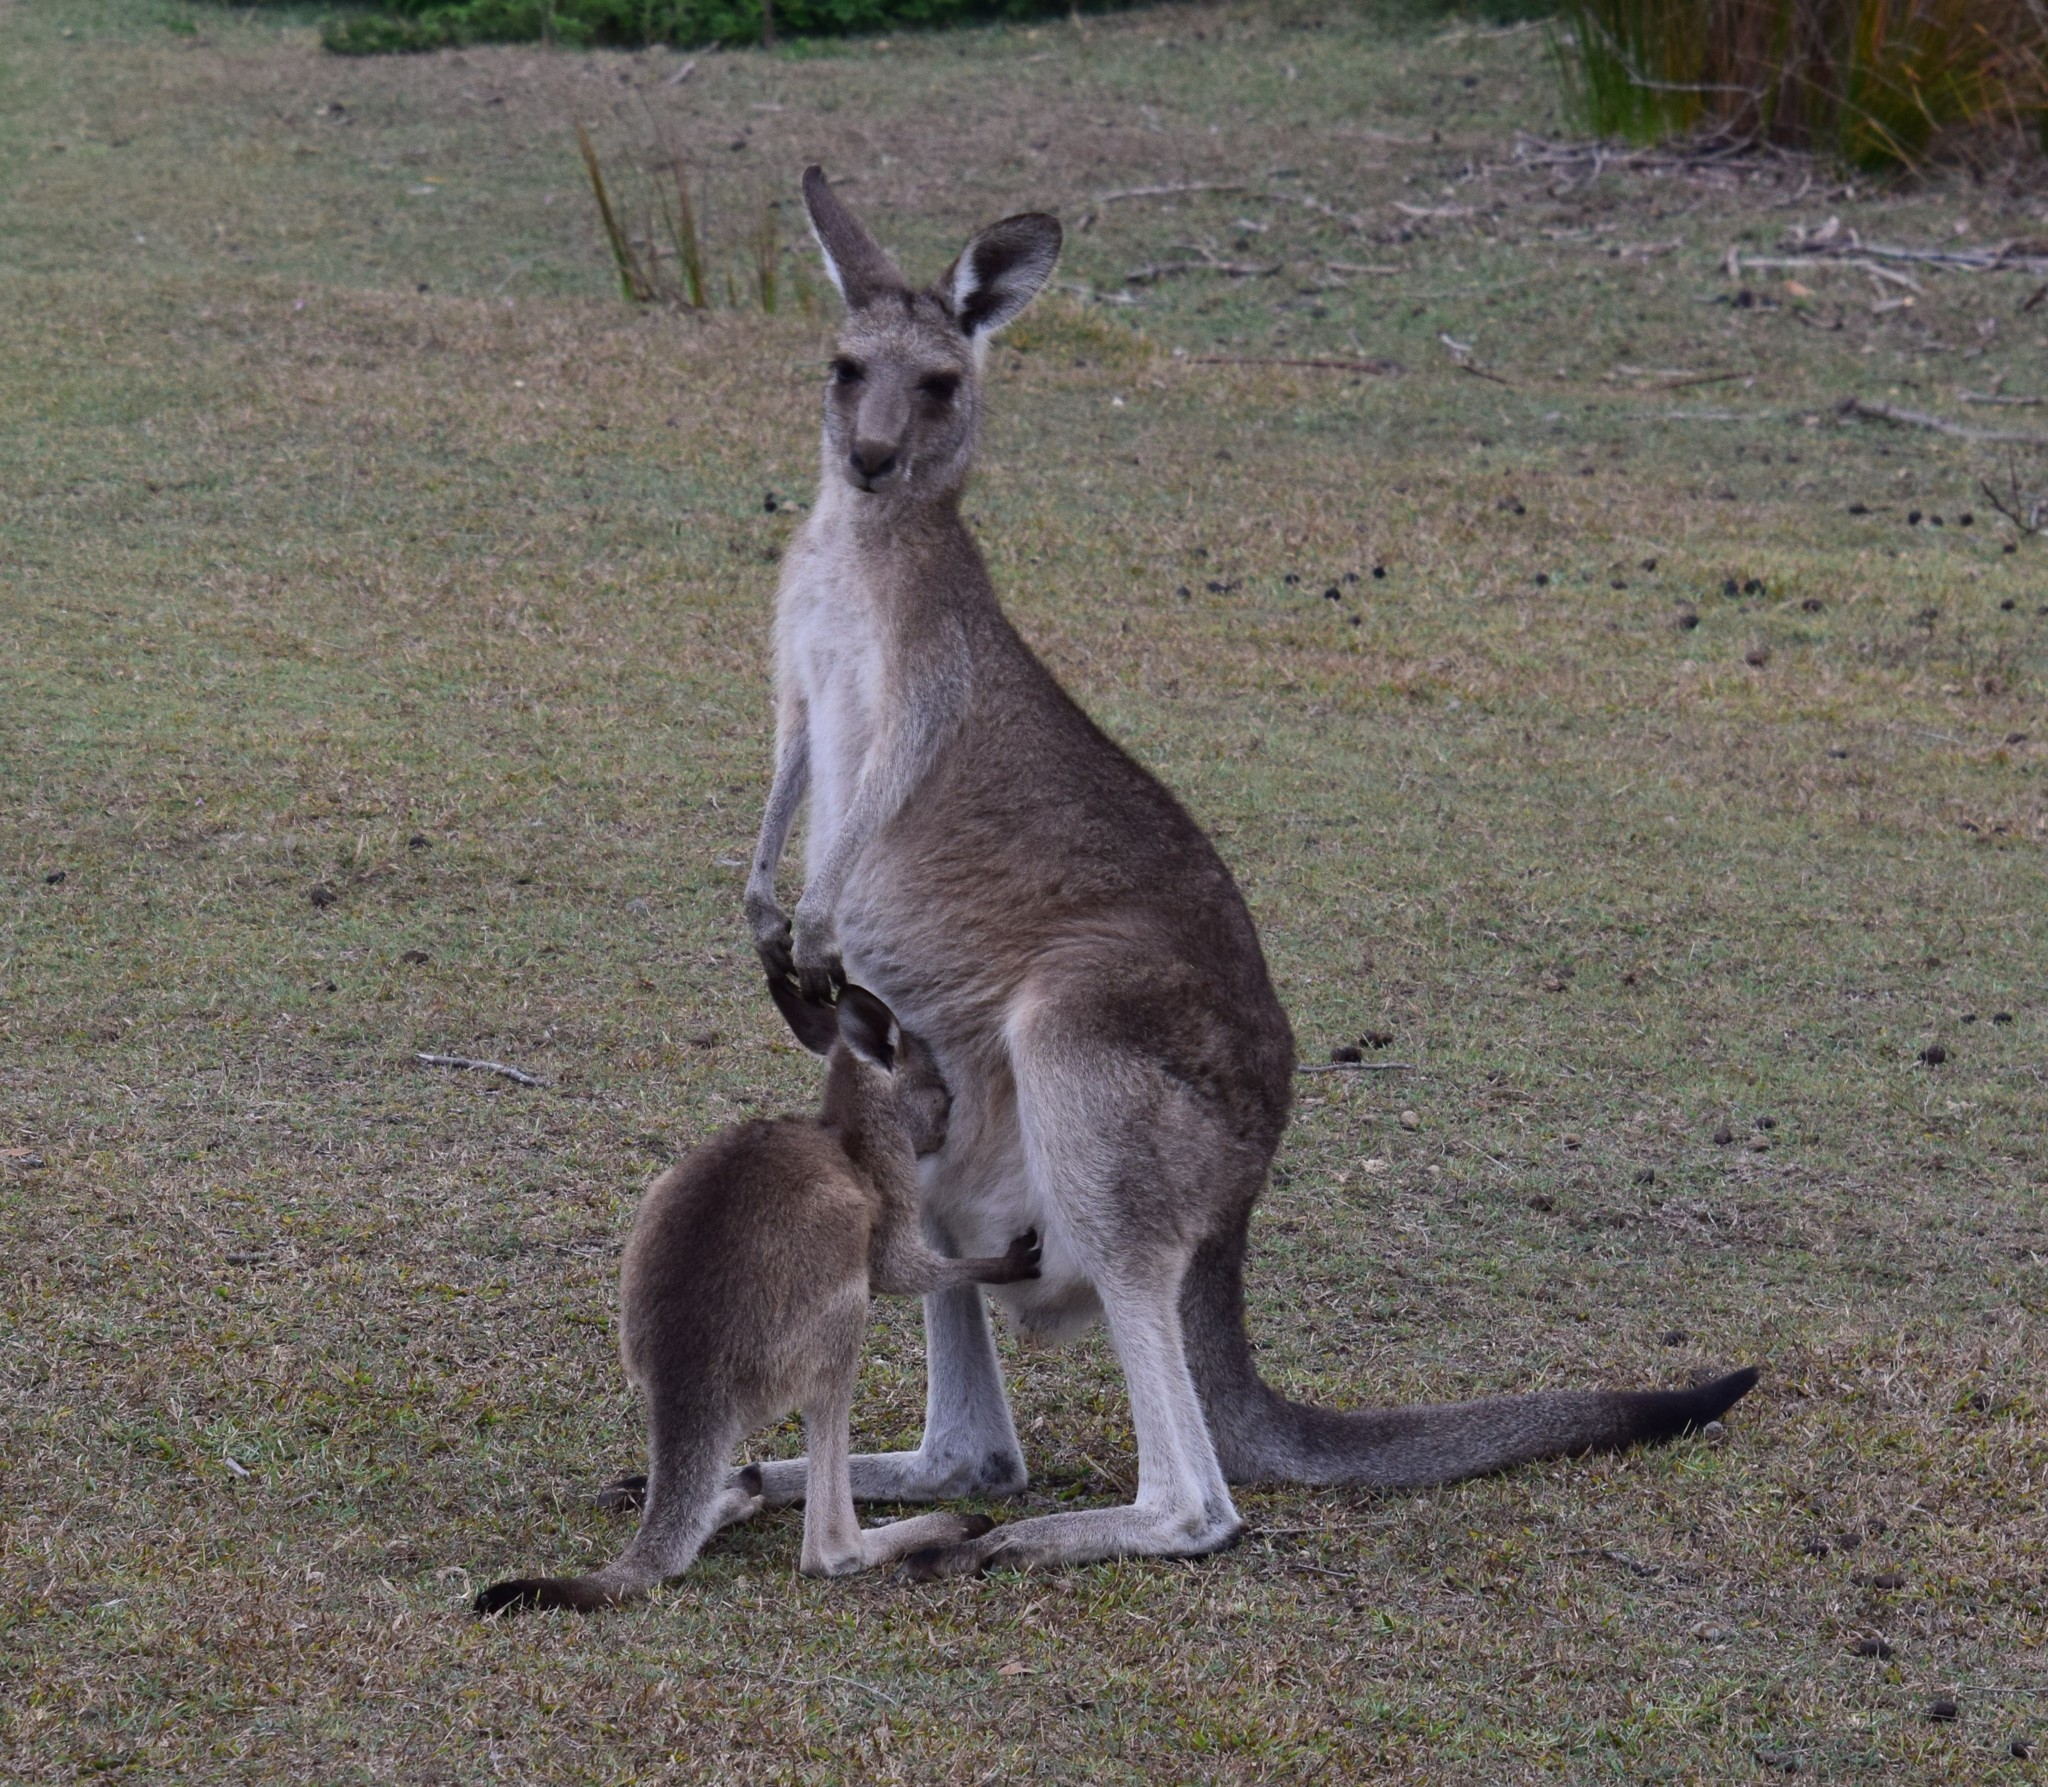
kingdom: Animalia
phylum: Chordata
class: Mammalia
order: Diprotodontia
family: Macropodidae
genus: Macropus
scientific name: Macropus giganteus
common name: Eastern grey kangaroo
